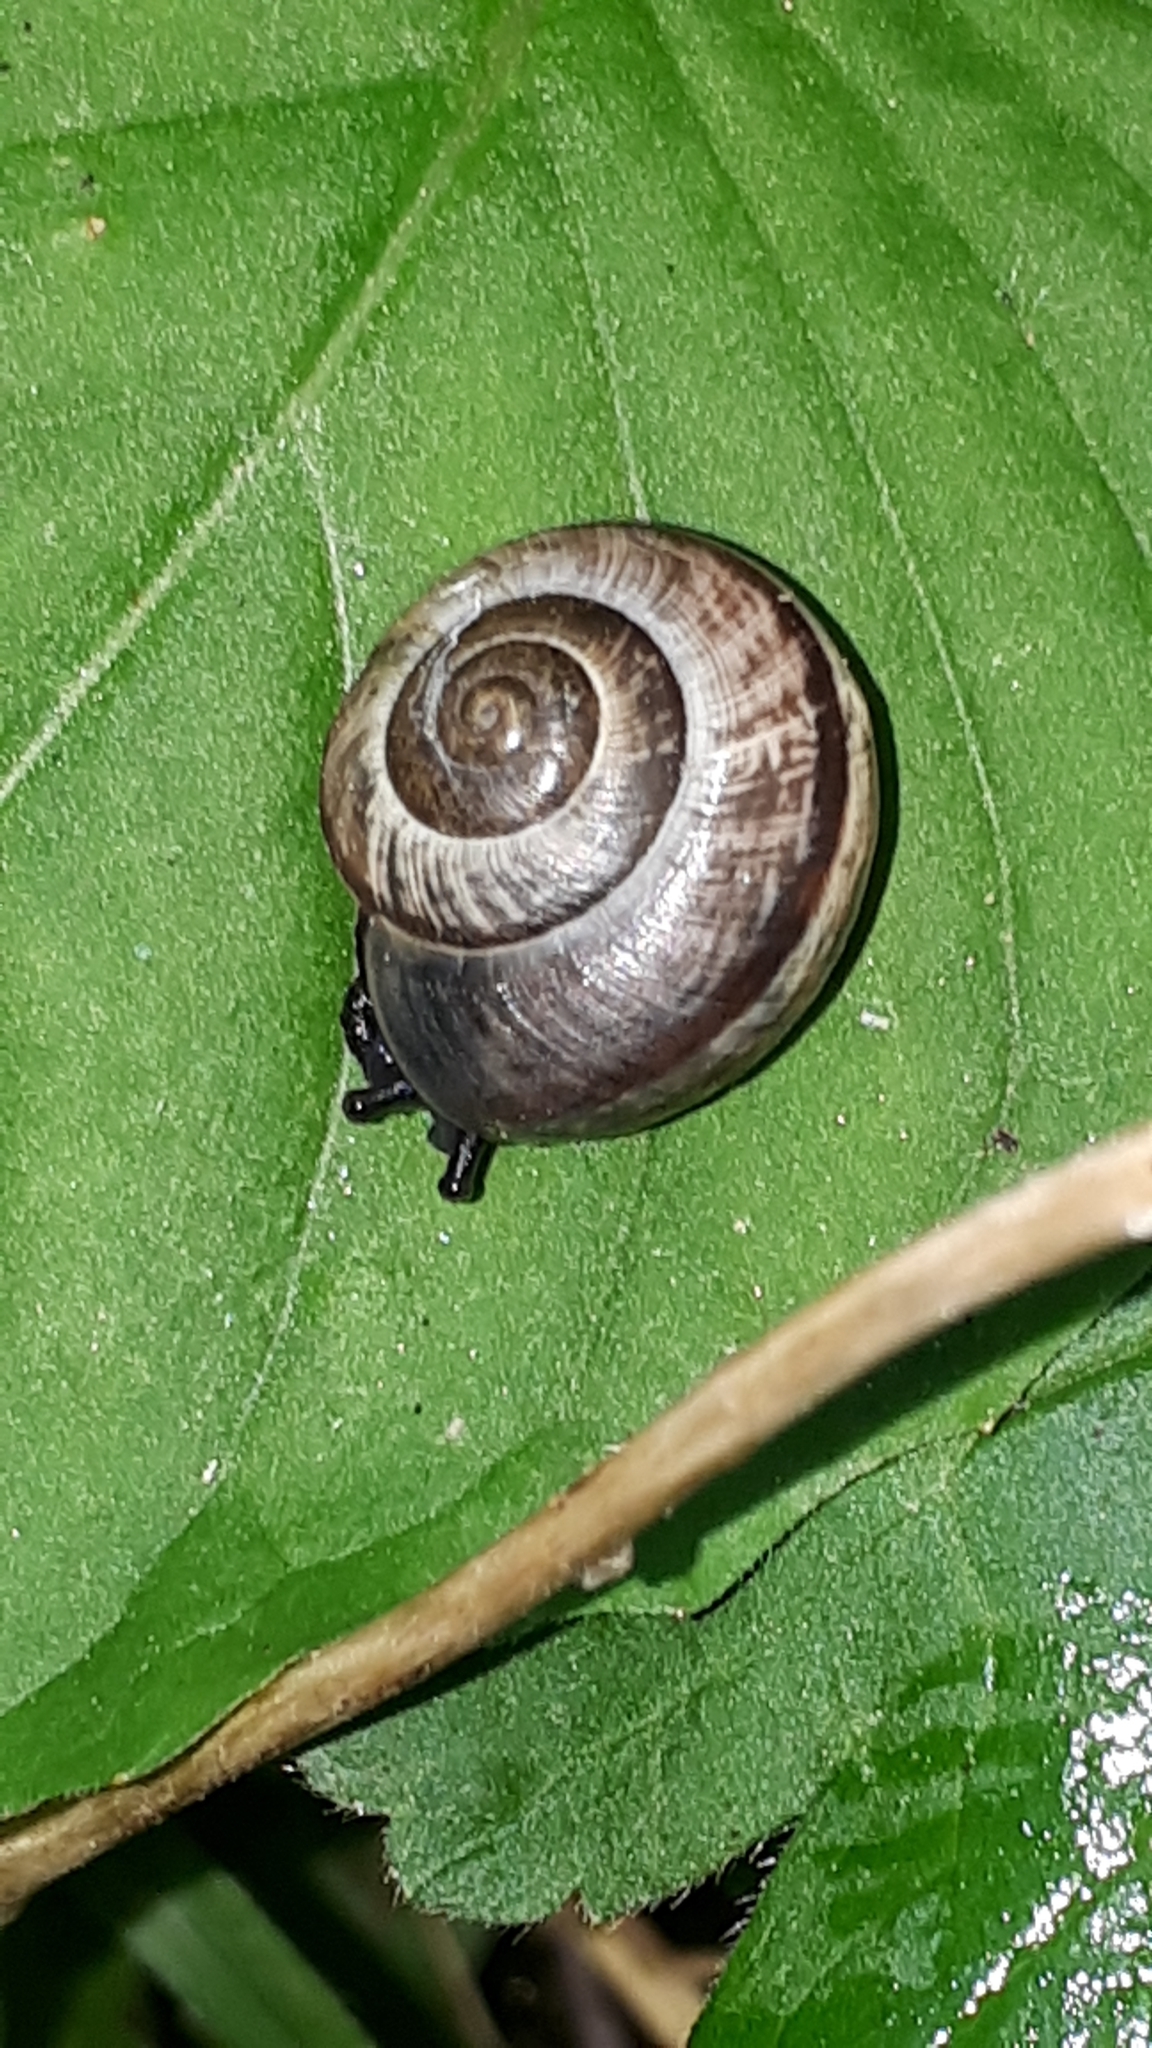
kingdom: Animalia
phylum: Mollusca
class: Gastropoda
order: Stylommatophora
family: Helicidae
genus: Arianta
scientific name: Arianta arbustorum
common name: Copse snail
